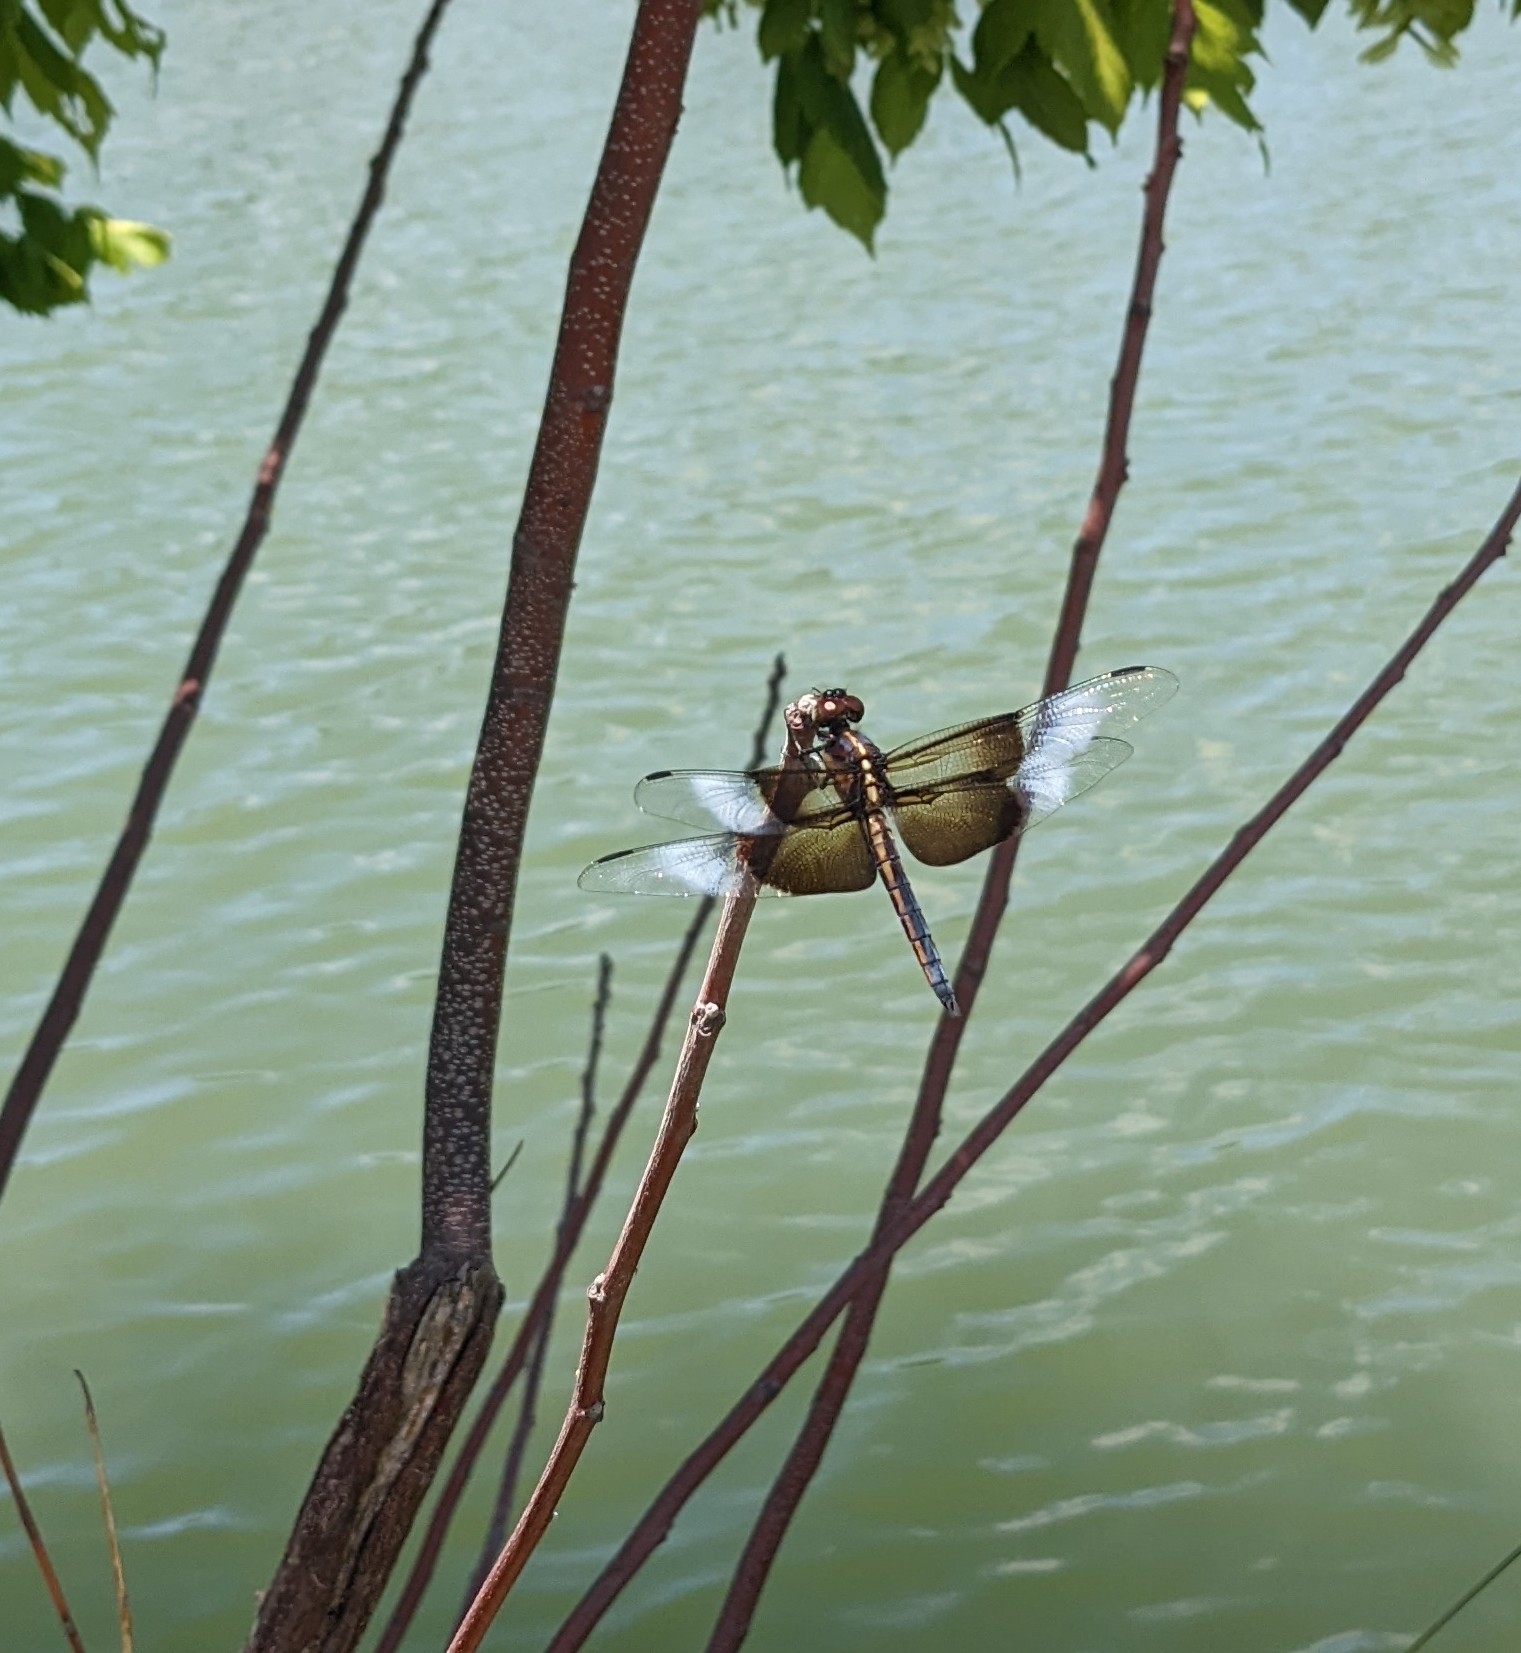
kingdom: Animalia
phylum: Arthropoda
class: Insecta
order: Odonata
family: Libellulidae
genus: Libellula
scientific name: Libellula luctuosa
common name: Widow skimmer
